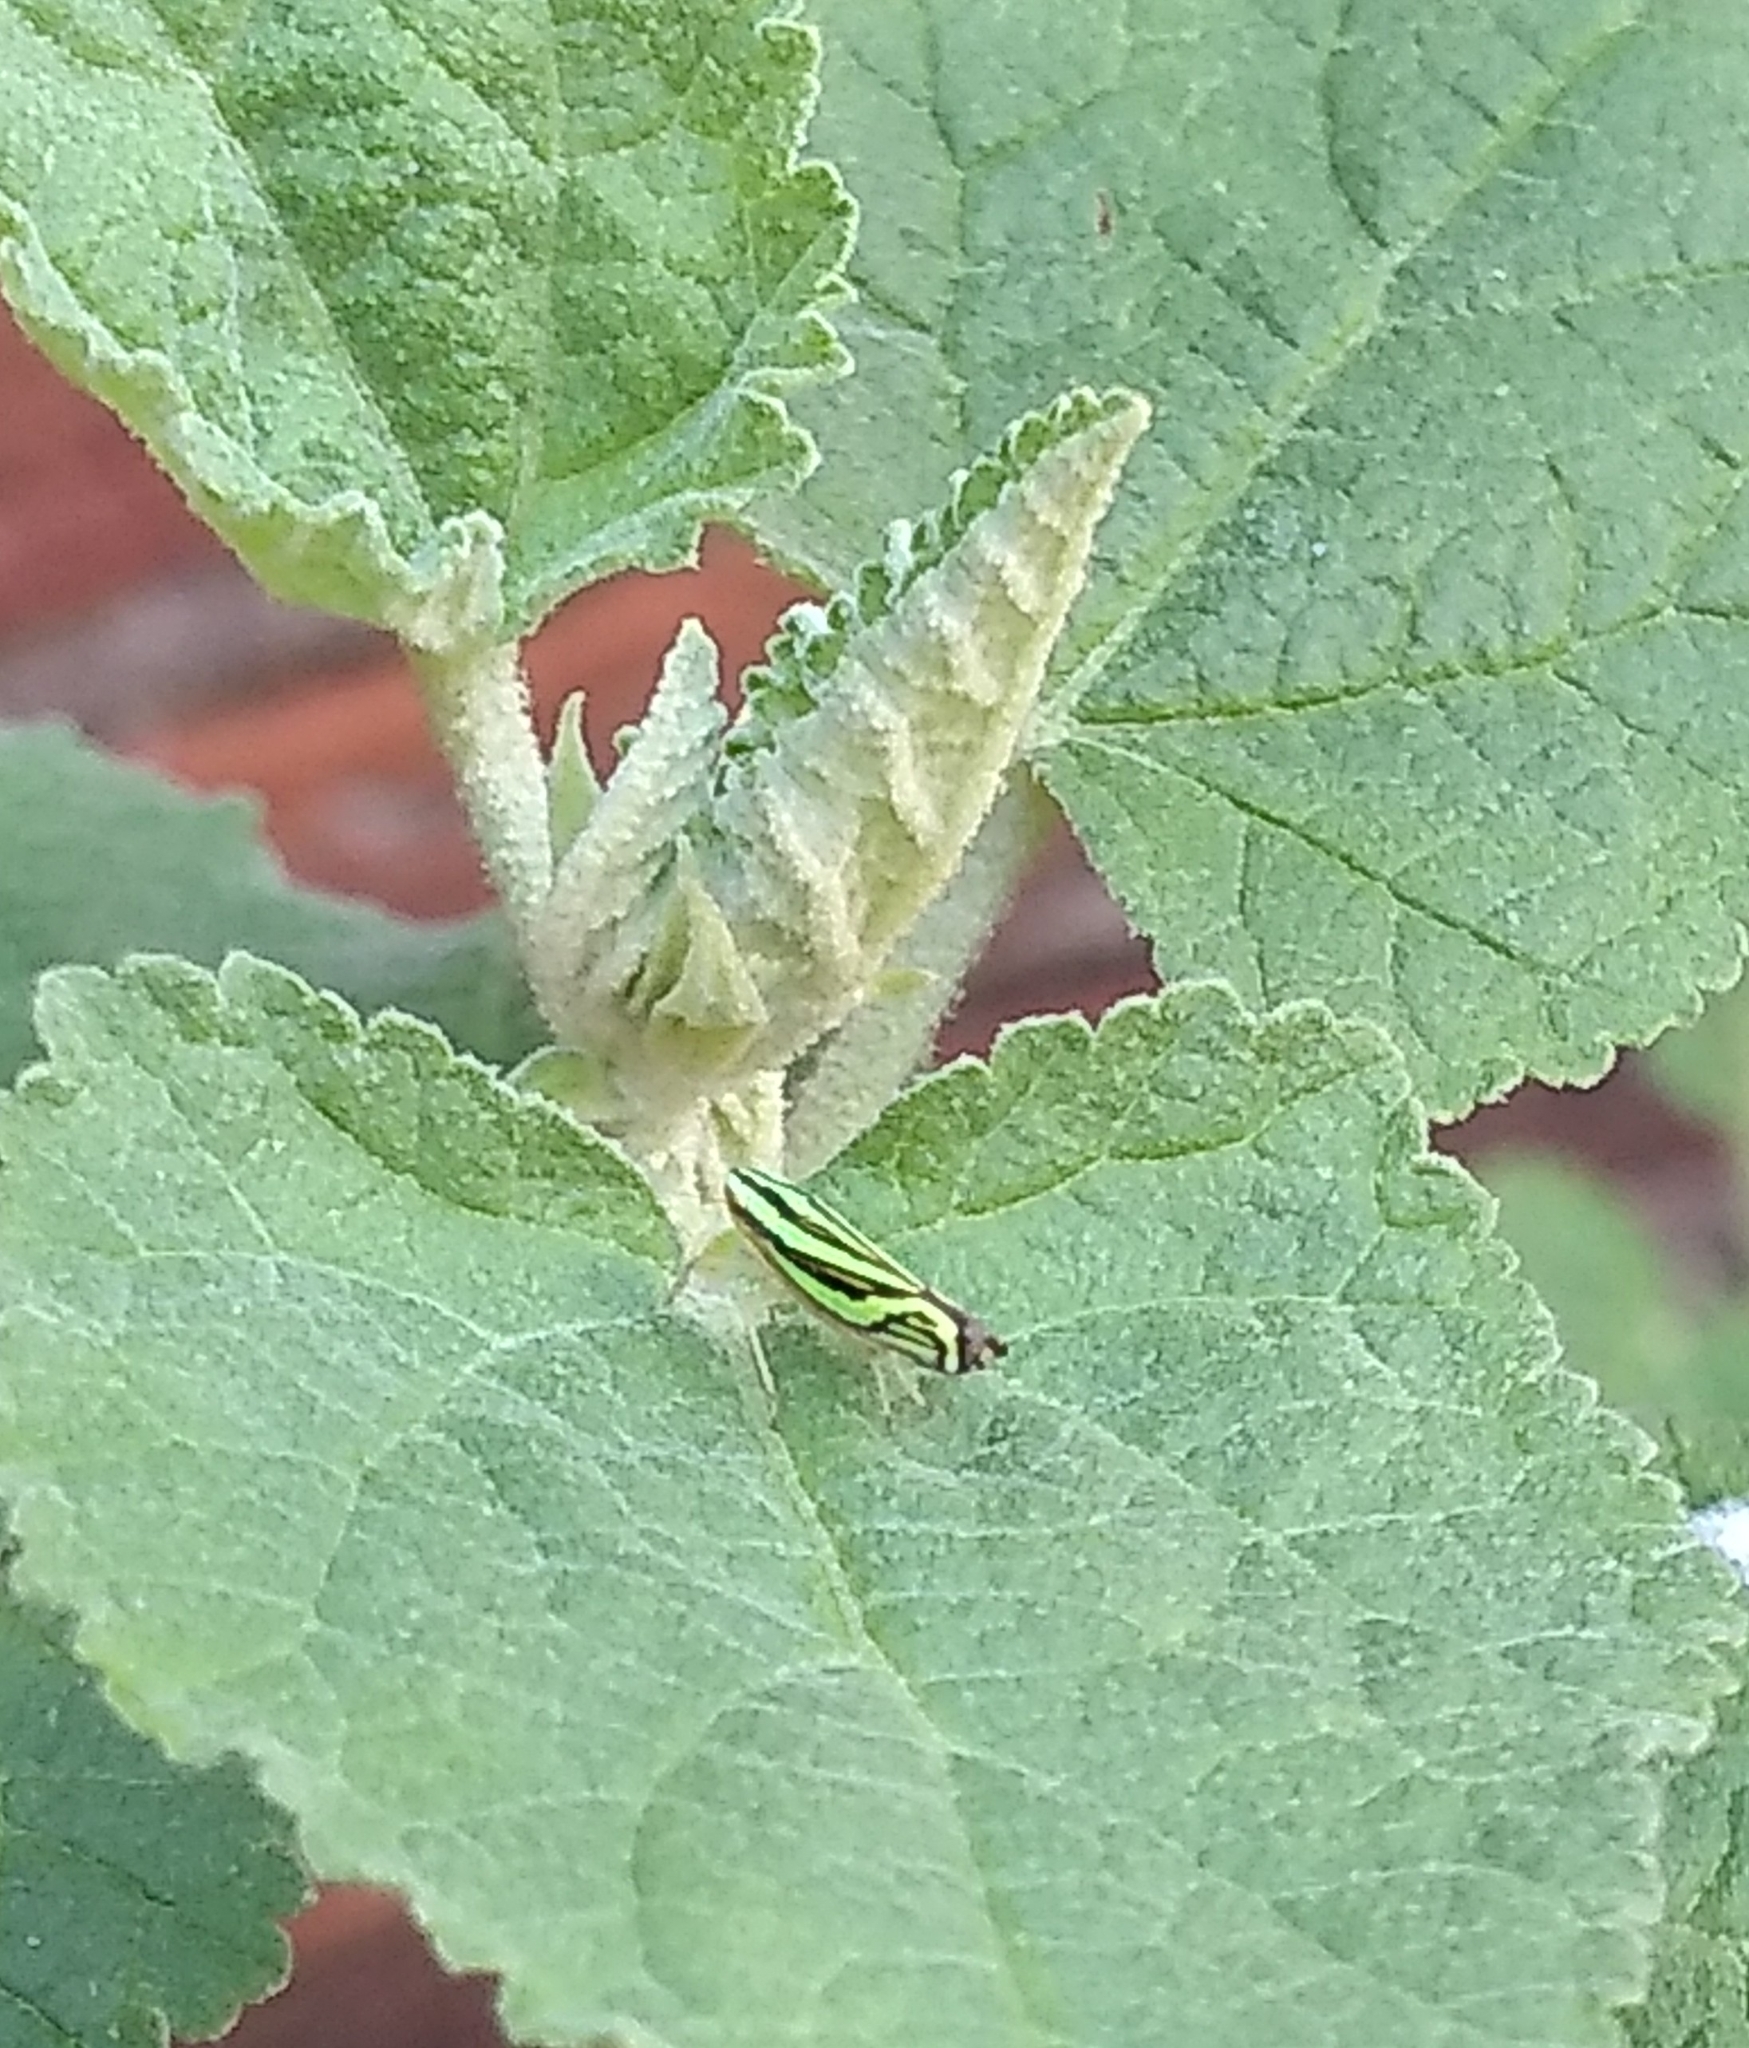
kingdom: Animalia
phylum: Arthropoda
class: Insecta
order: Hemiptera
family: Cicadellidae
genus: Sibovia
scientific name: Sibovia sagata
